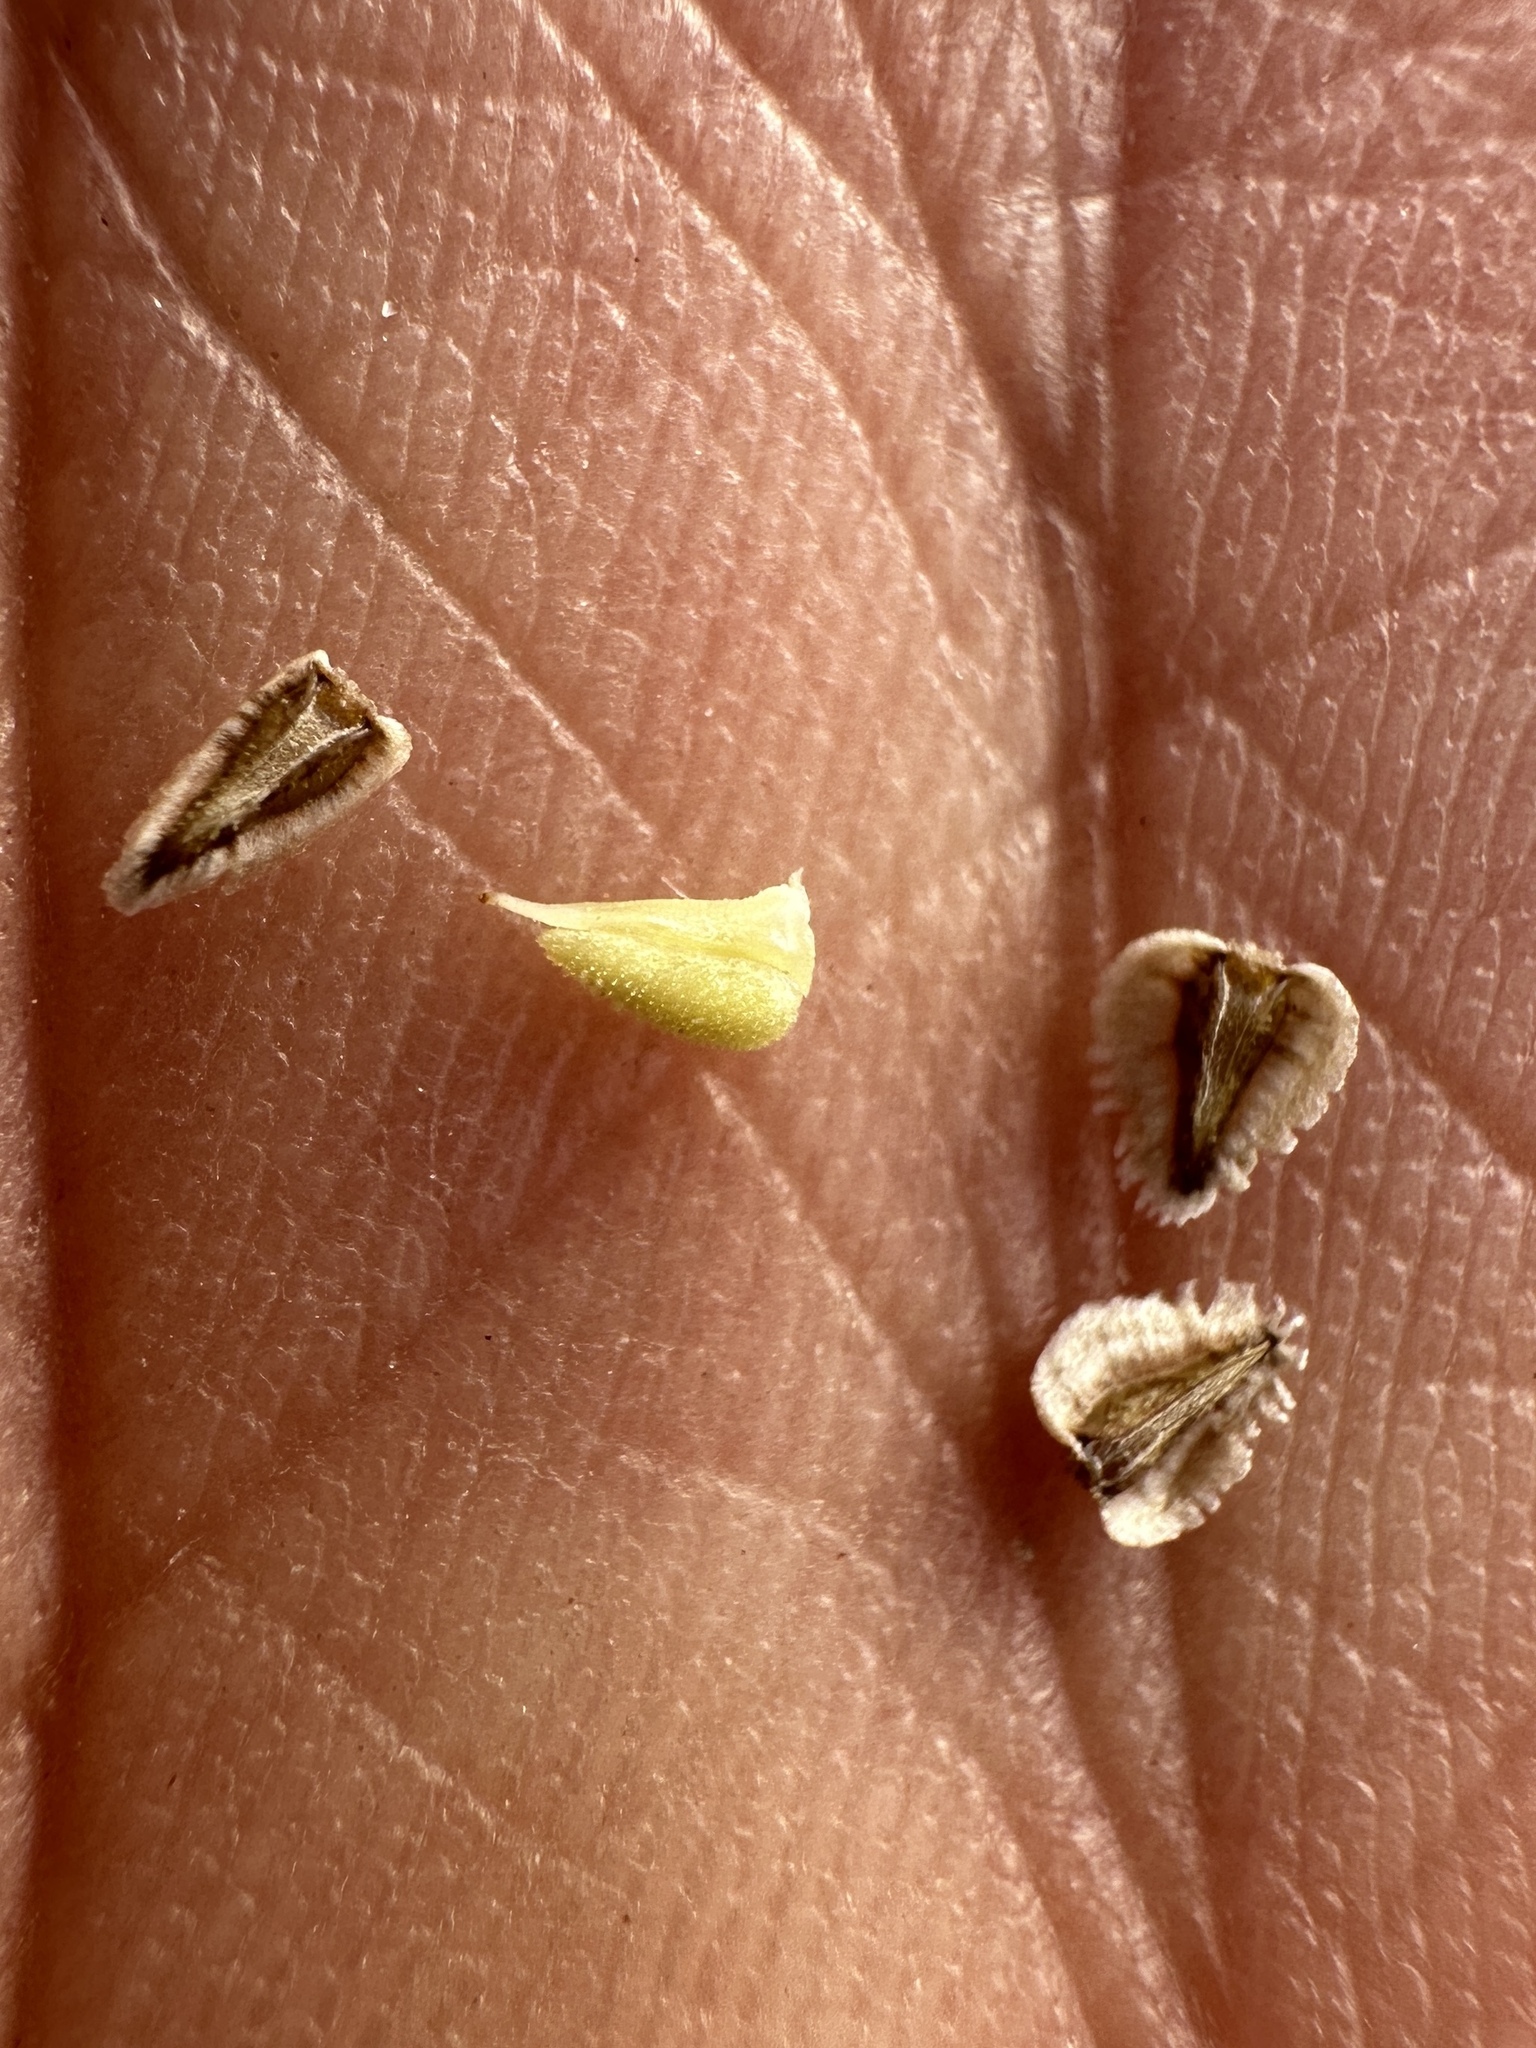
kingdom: Plantae
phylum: Tracheophyta
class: Magnoliopsida
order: Boraginales
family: Boraginaceae
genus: Cryptantha
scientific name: Cryptantha pterocarya
